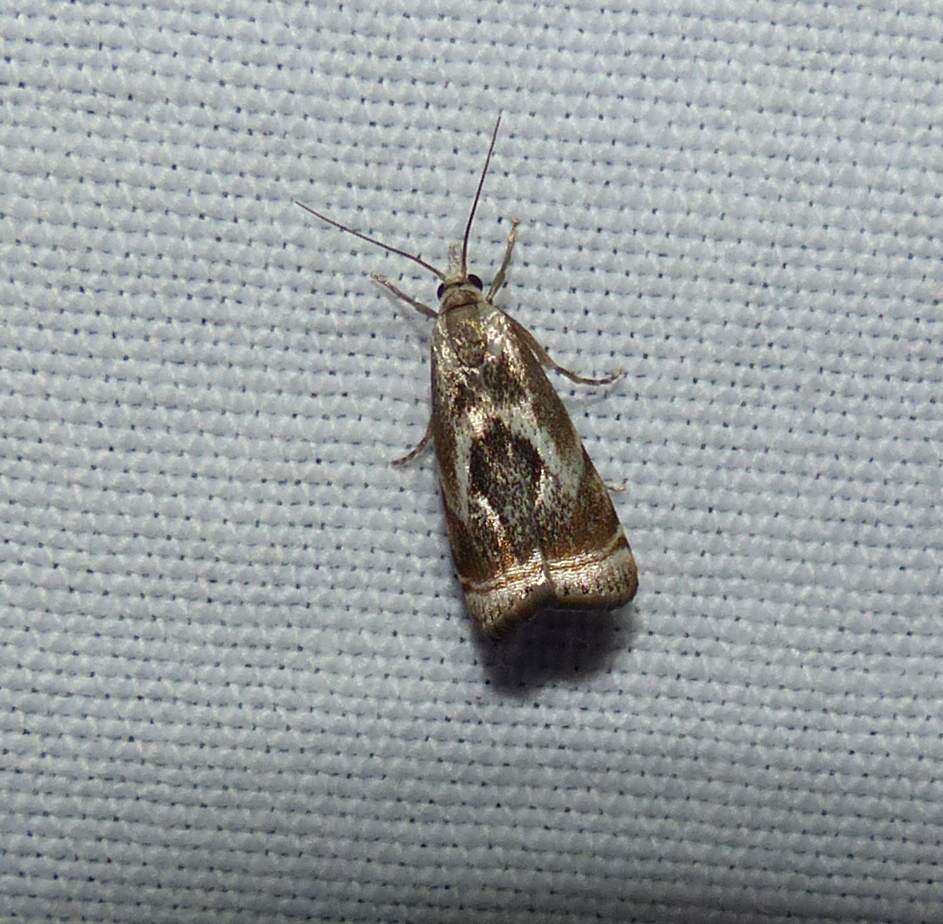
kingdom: Animalia
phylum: Arthropoda
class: Insecta
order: Lepidoptera
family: Crambidae
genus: Microcrambus
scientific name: Microcrambus elegans
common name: Elegant grass-veneer
